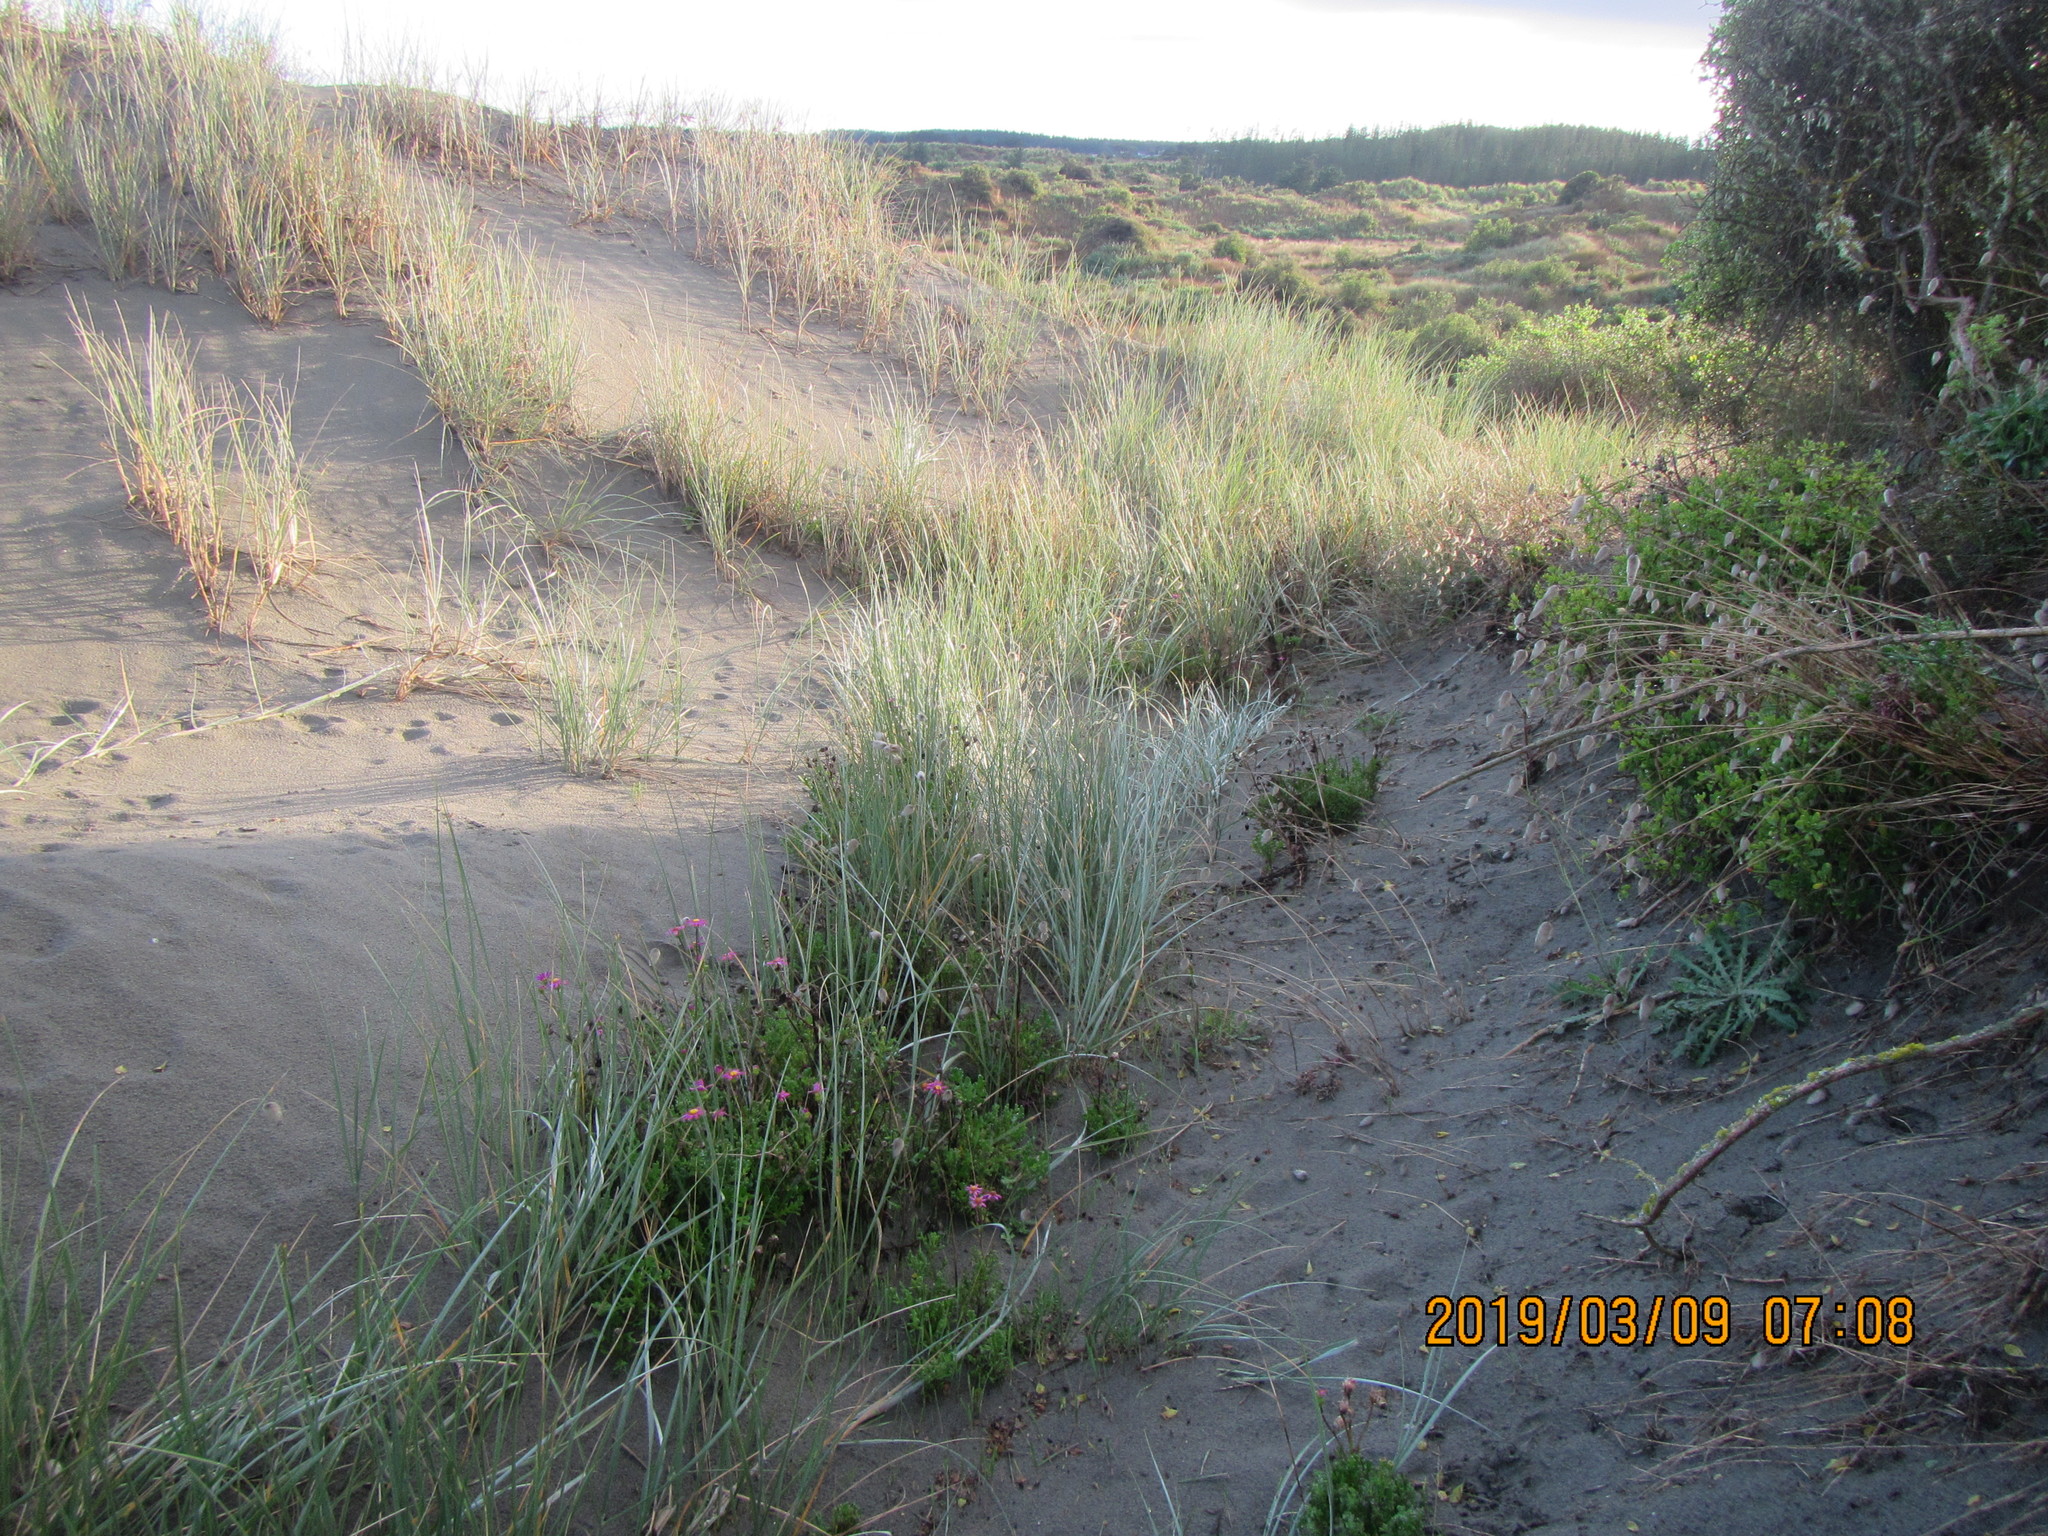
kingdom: Plantae
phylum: Tracheophyta
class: Magnoliopsida
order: Asterales
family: Asteraceae
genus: Senecio
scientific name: Senecio elegans
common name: Purple groundsel
